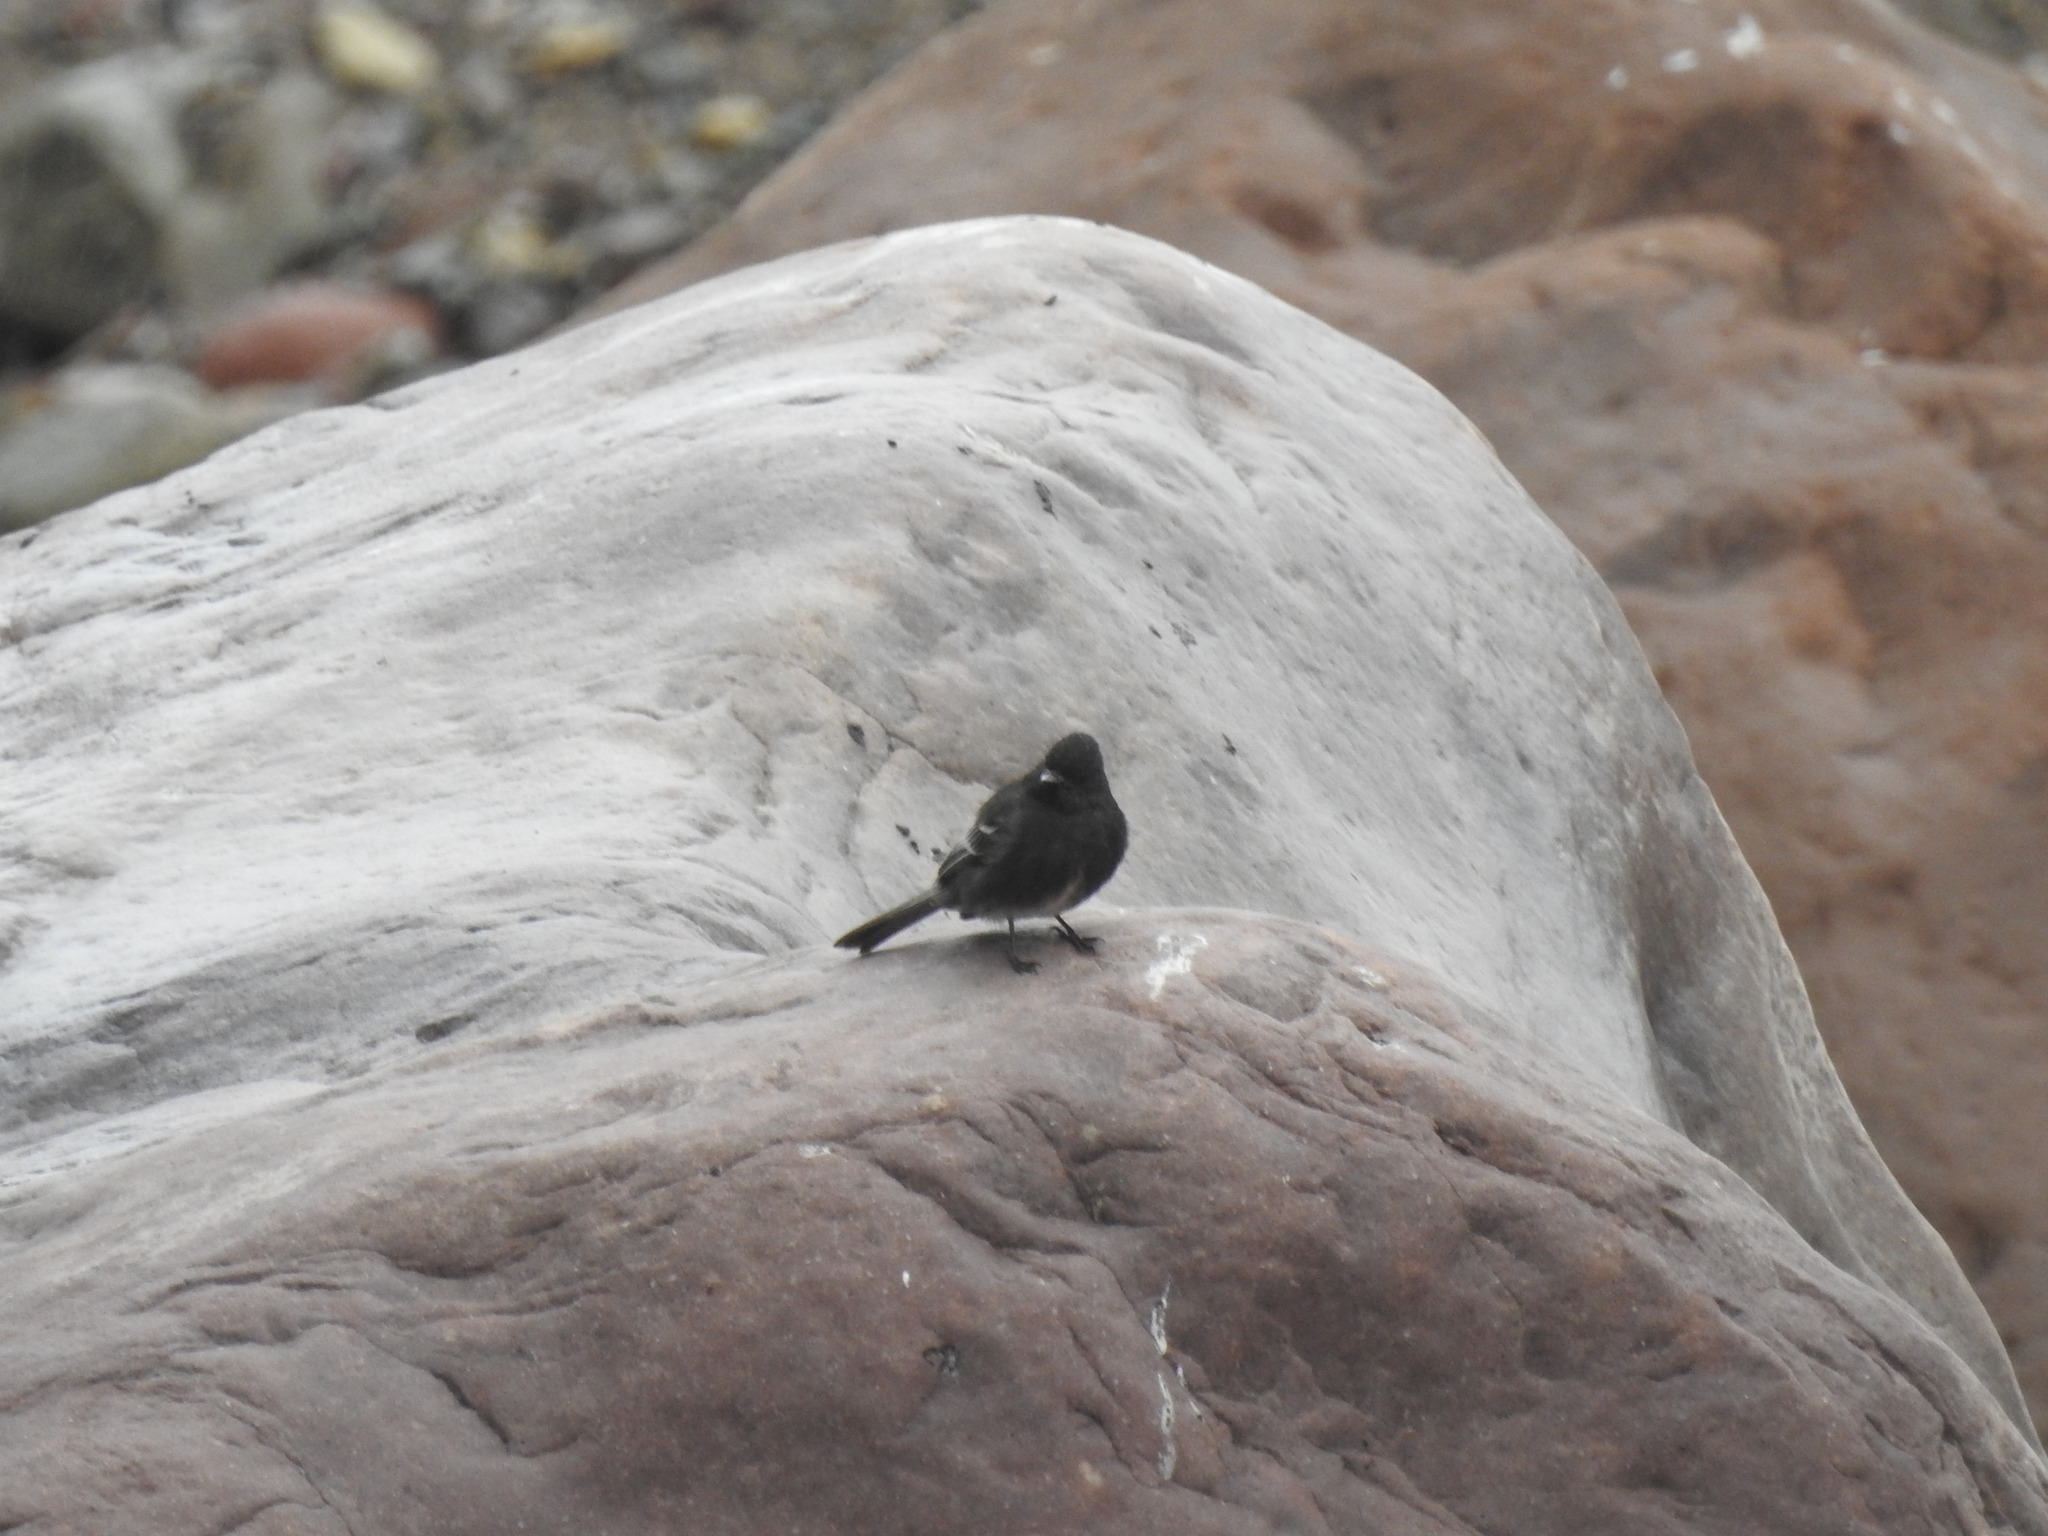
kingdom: Animalia
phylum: Chordata
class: Aves
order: Passeriformes
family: Tyrannidae
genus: Sayornis
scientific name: Sayornis nigricans
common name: Black phoebe
